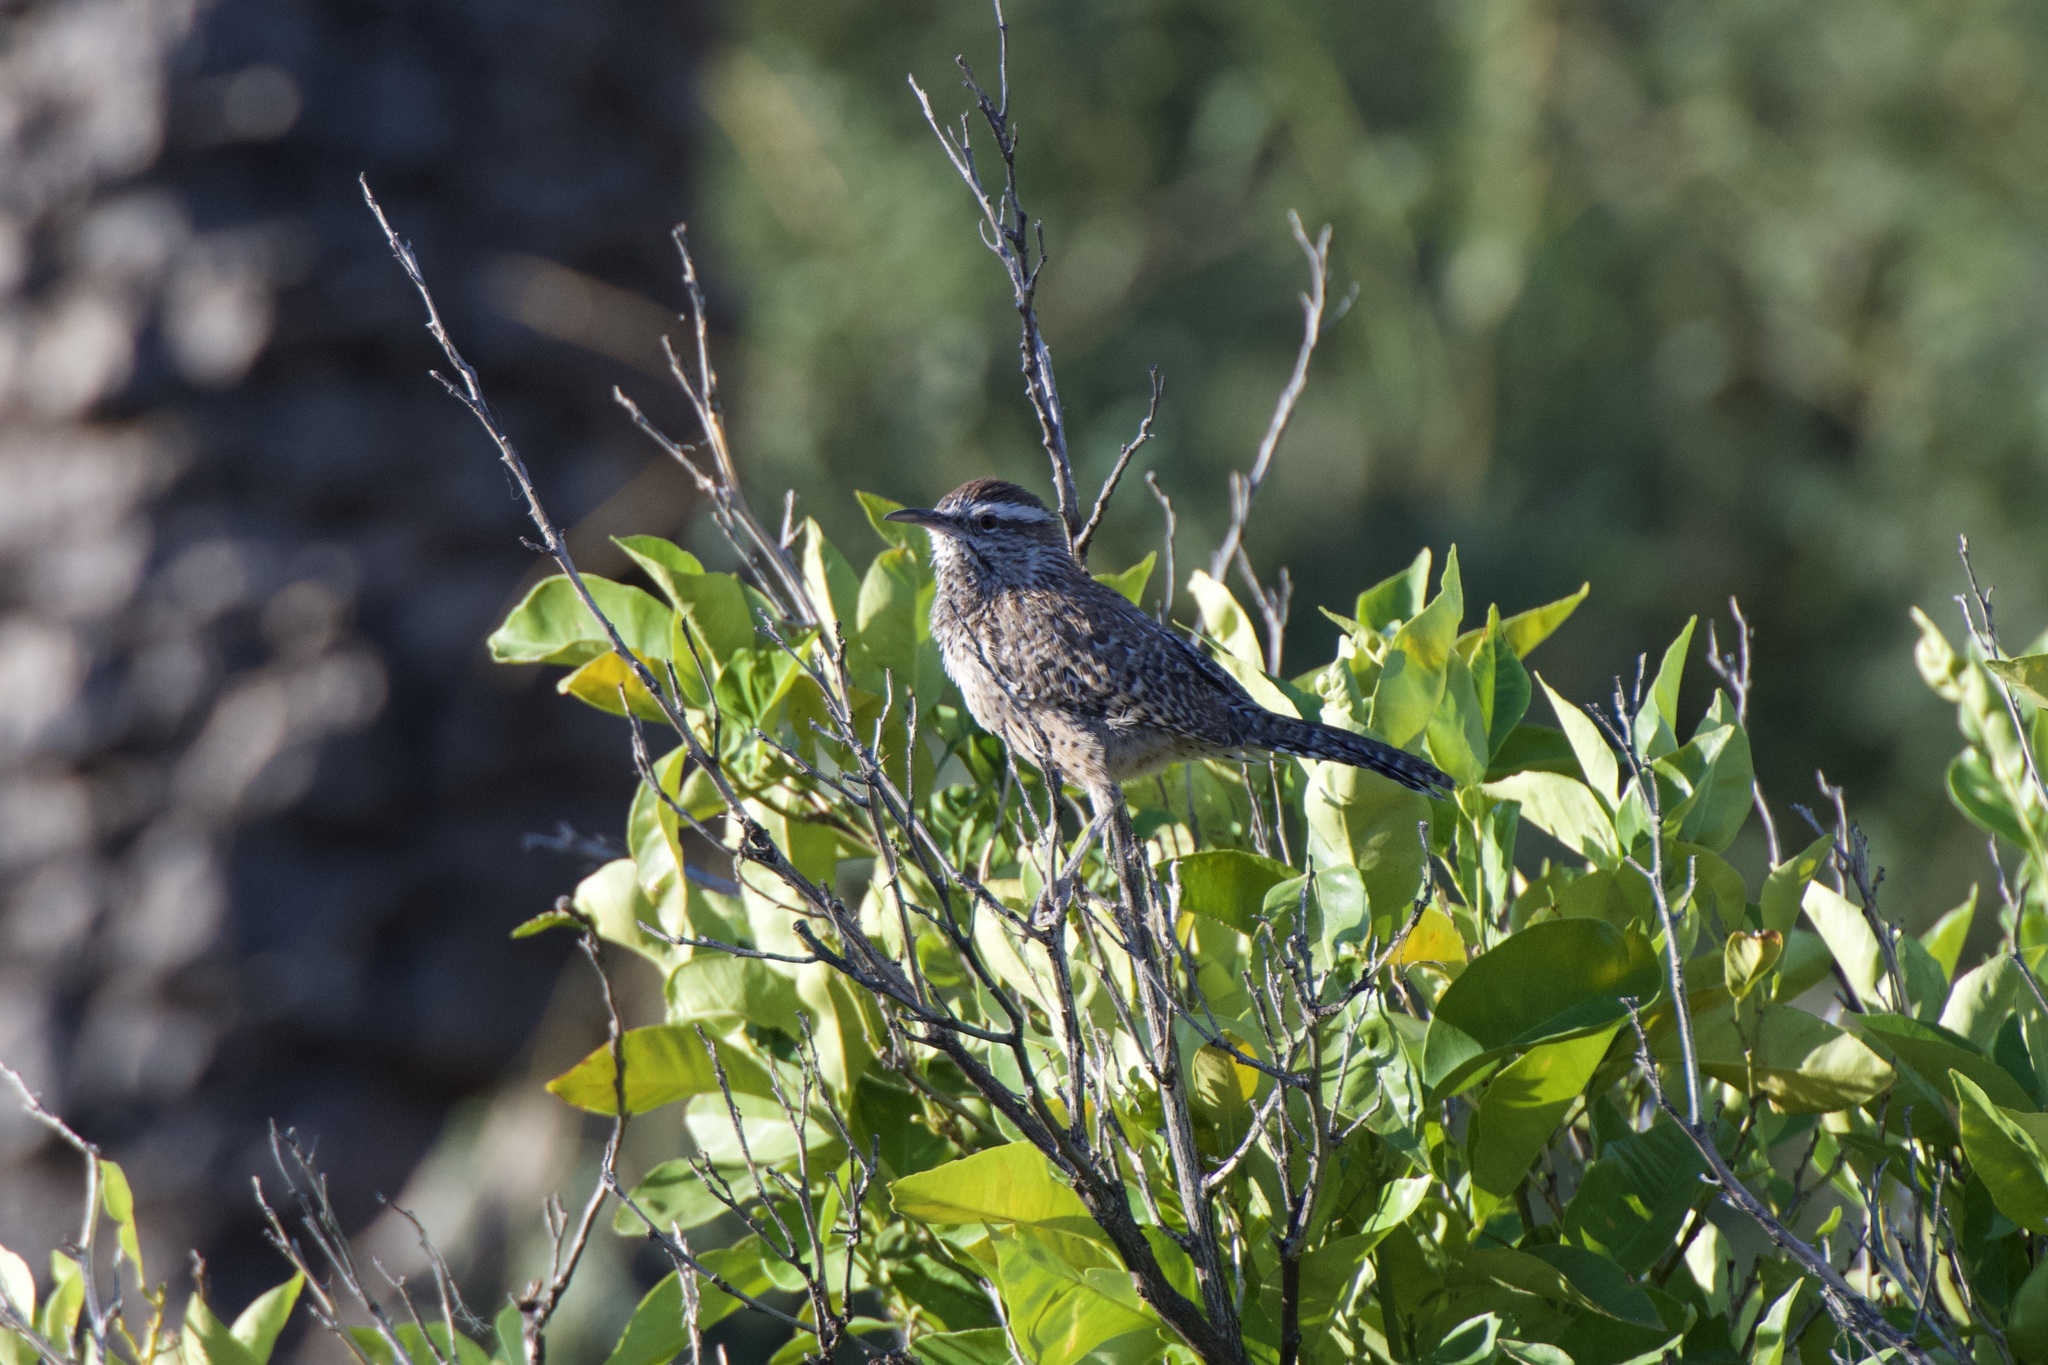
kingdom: Animalia
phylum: Chordata
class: Aves
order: Passeriformes
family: Troglodytidae
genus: Campylorhynchus
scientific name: Campylorhynchus brunneicapillus
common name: Cactus wren
